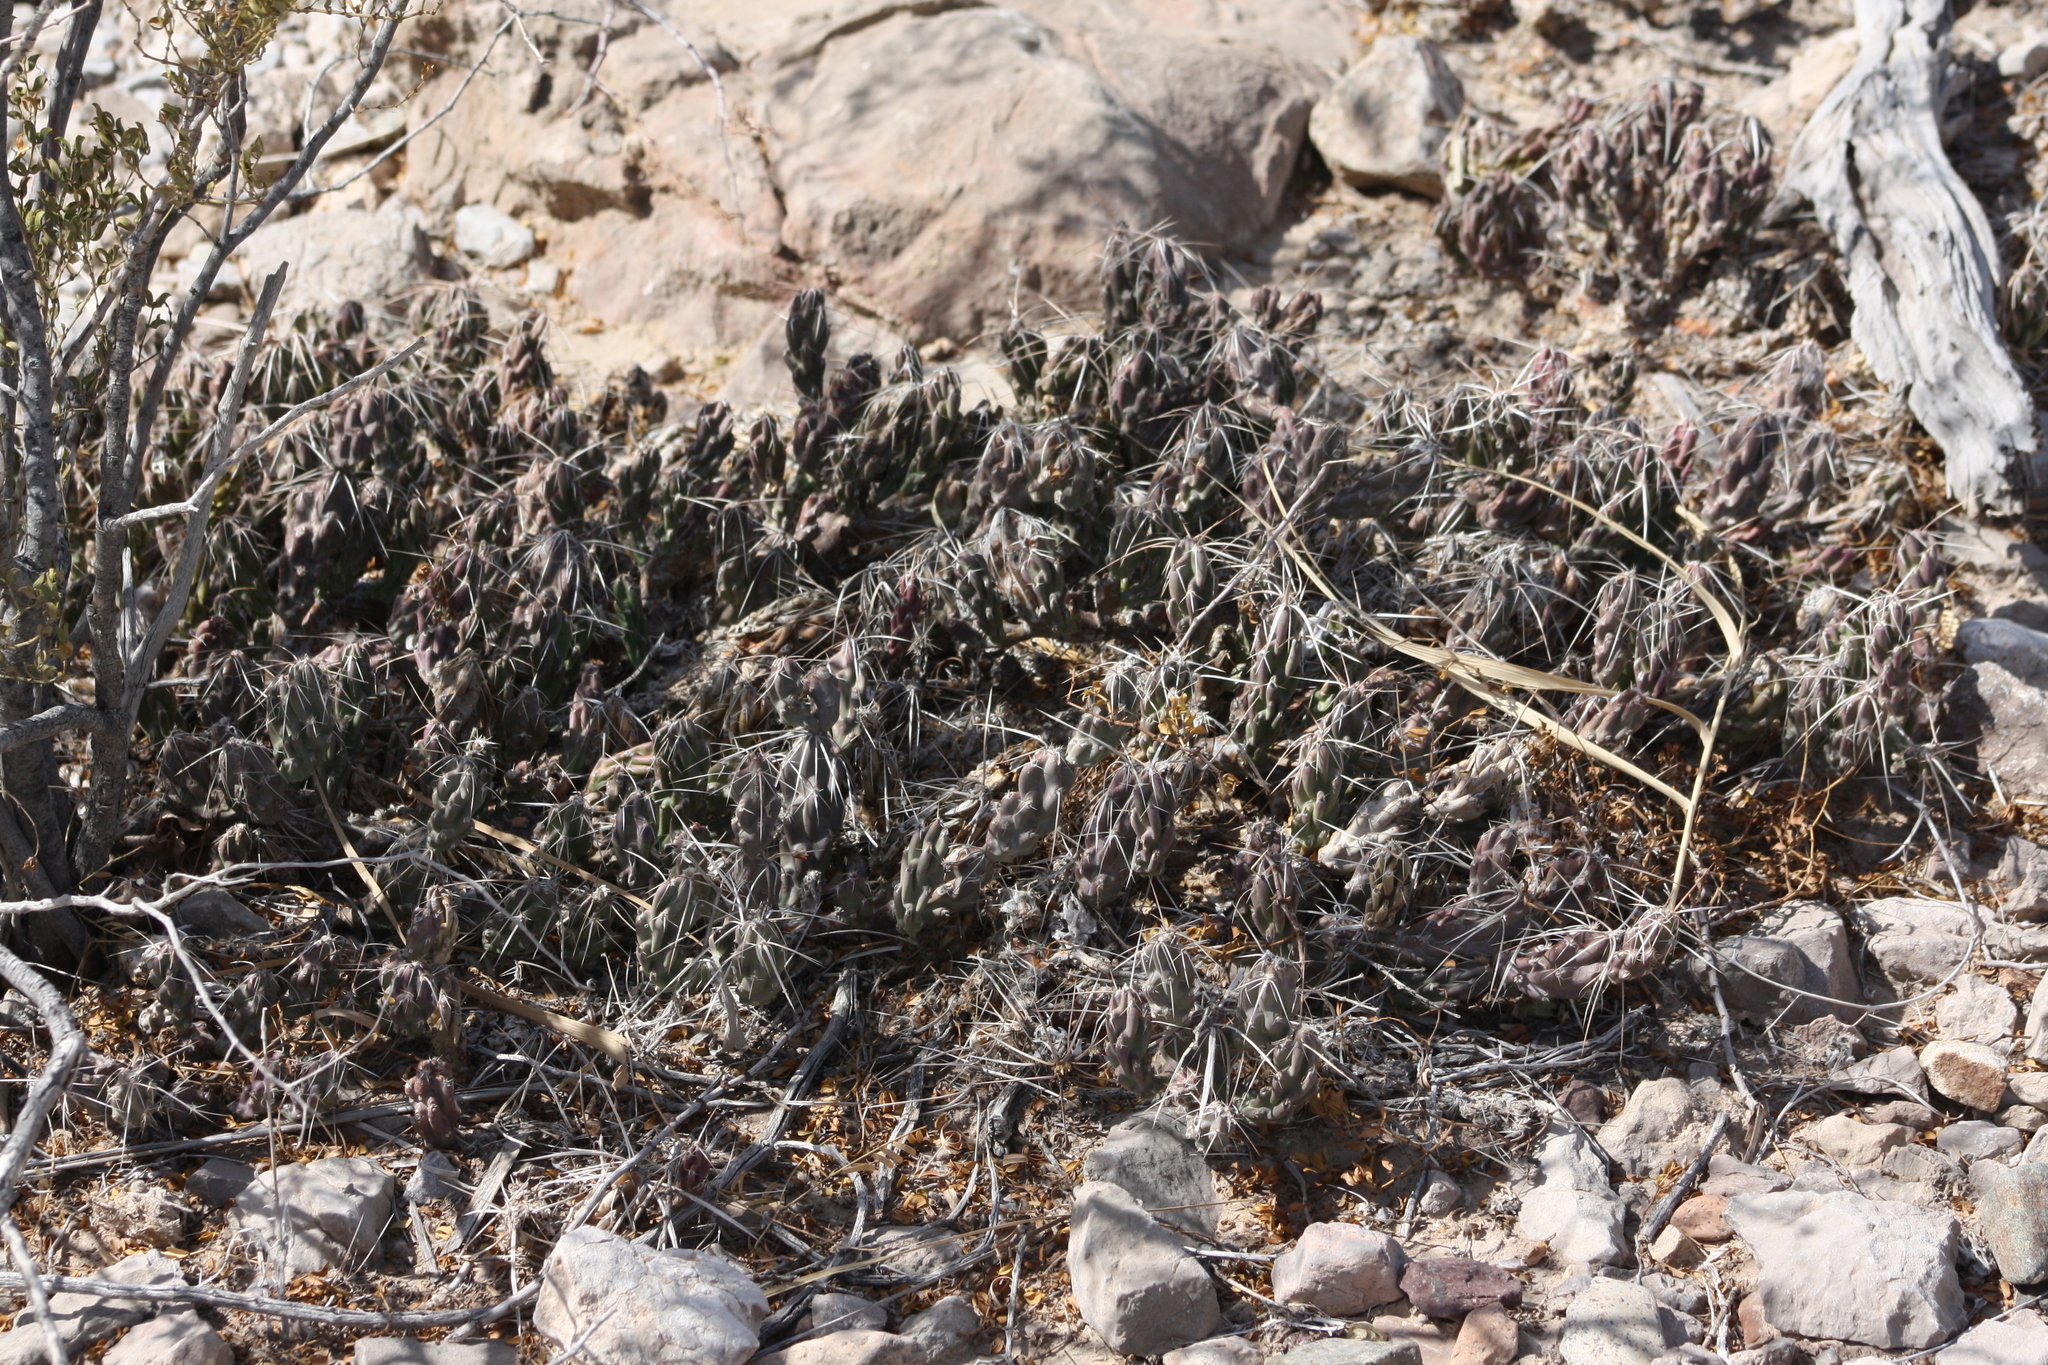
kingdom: Plantae
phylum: Tracheophyta
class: Magnoliopsida
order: Caryophyllales
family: Cactaceae
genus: Grusonia
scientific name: Grusonia aggeria
